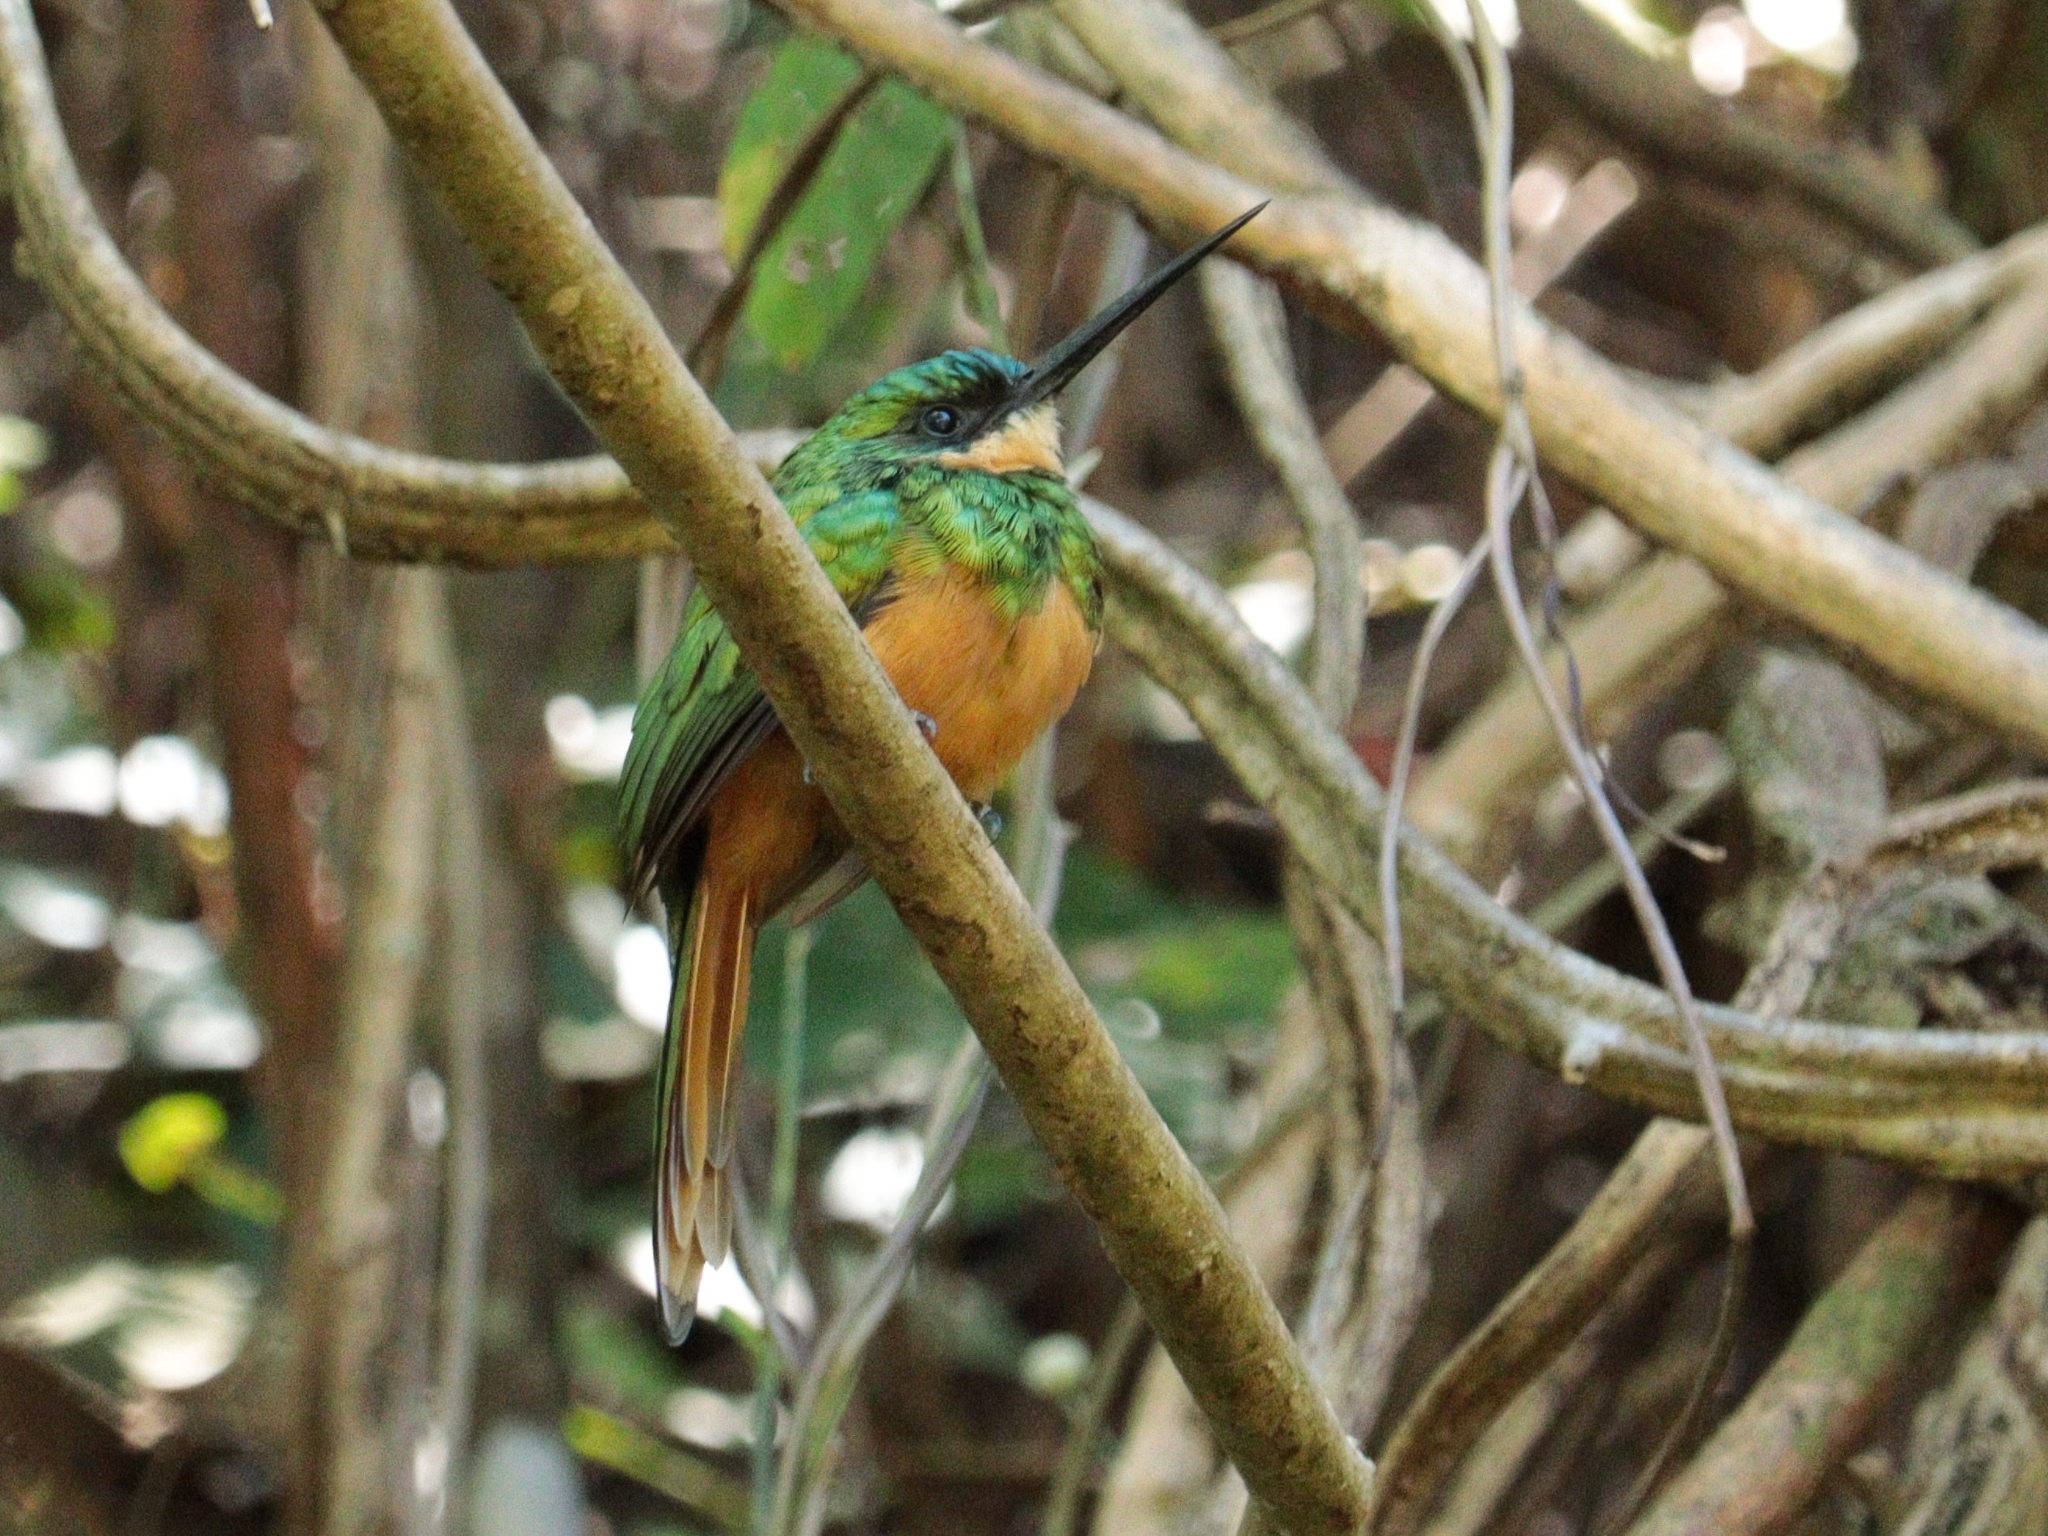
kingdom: Animalia
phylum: Chordata
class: Aves
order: Piciformes
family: Galbulidae
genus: Galbula
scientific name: Galbula ruficauda
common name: Rufous-tailed jacamar
